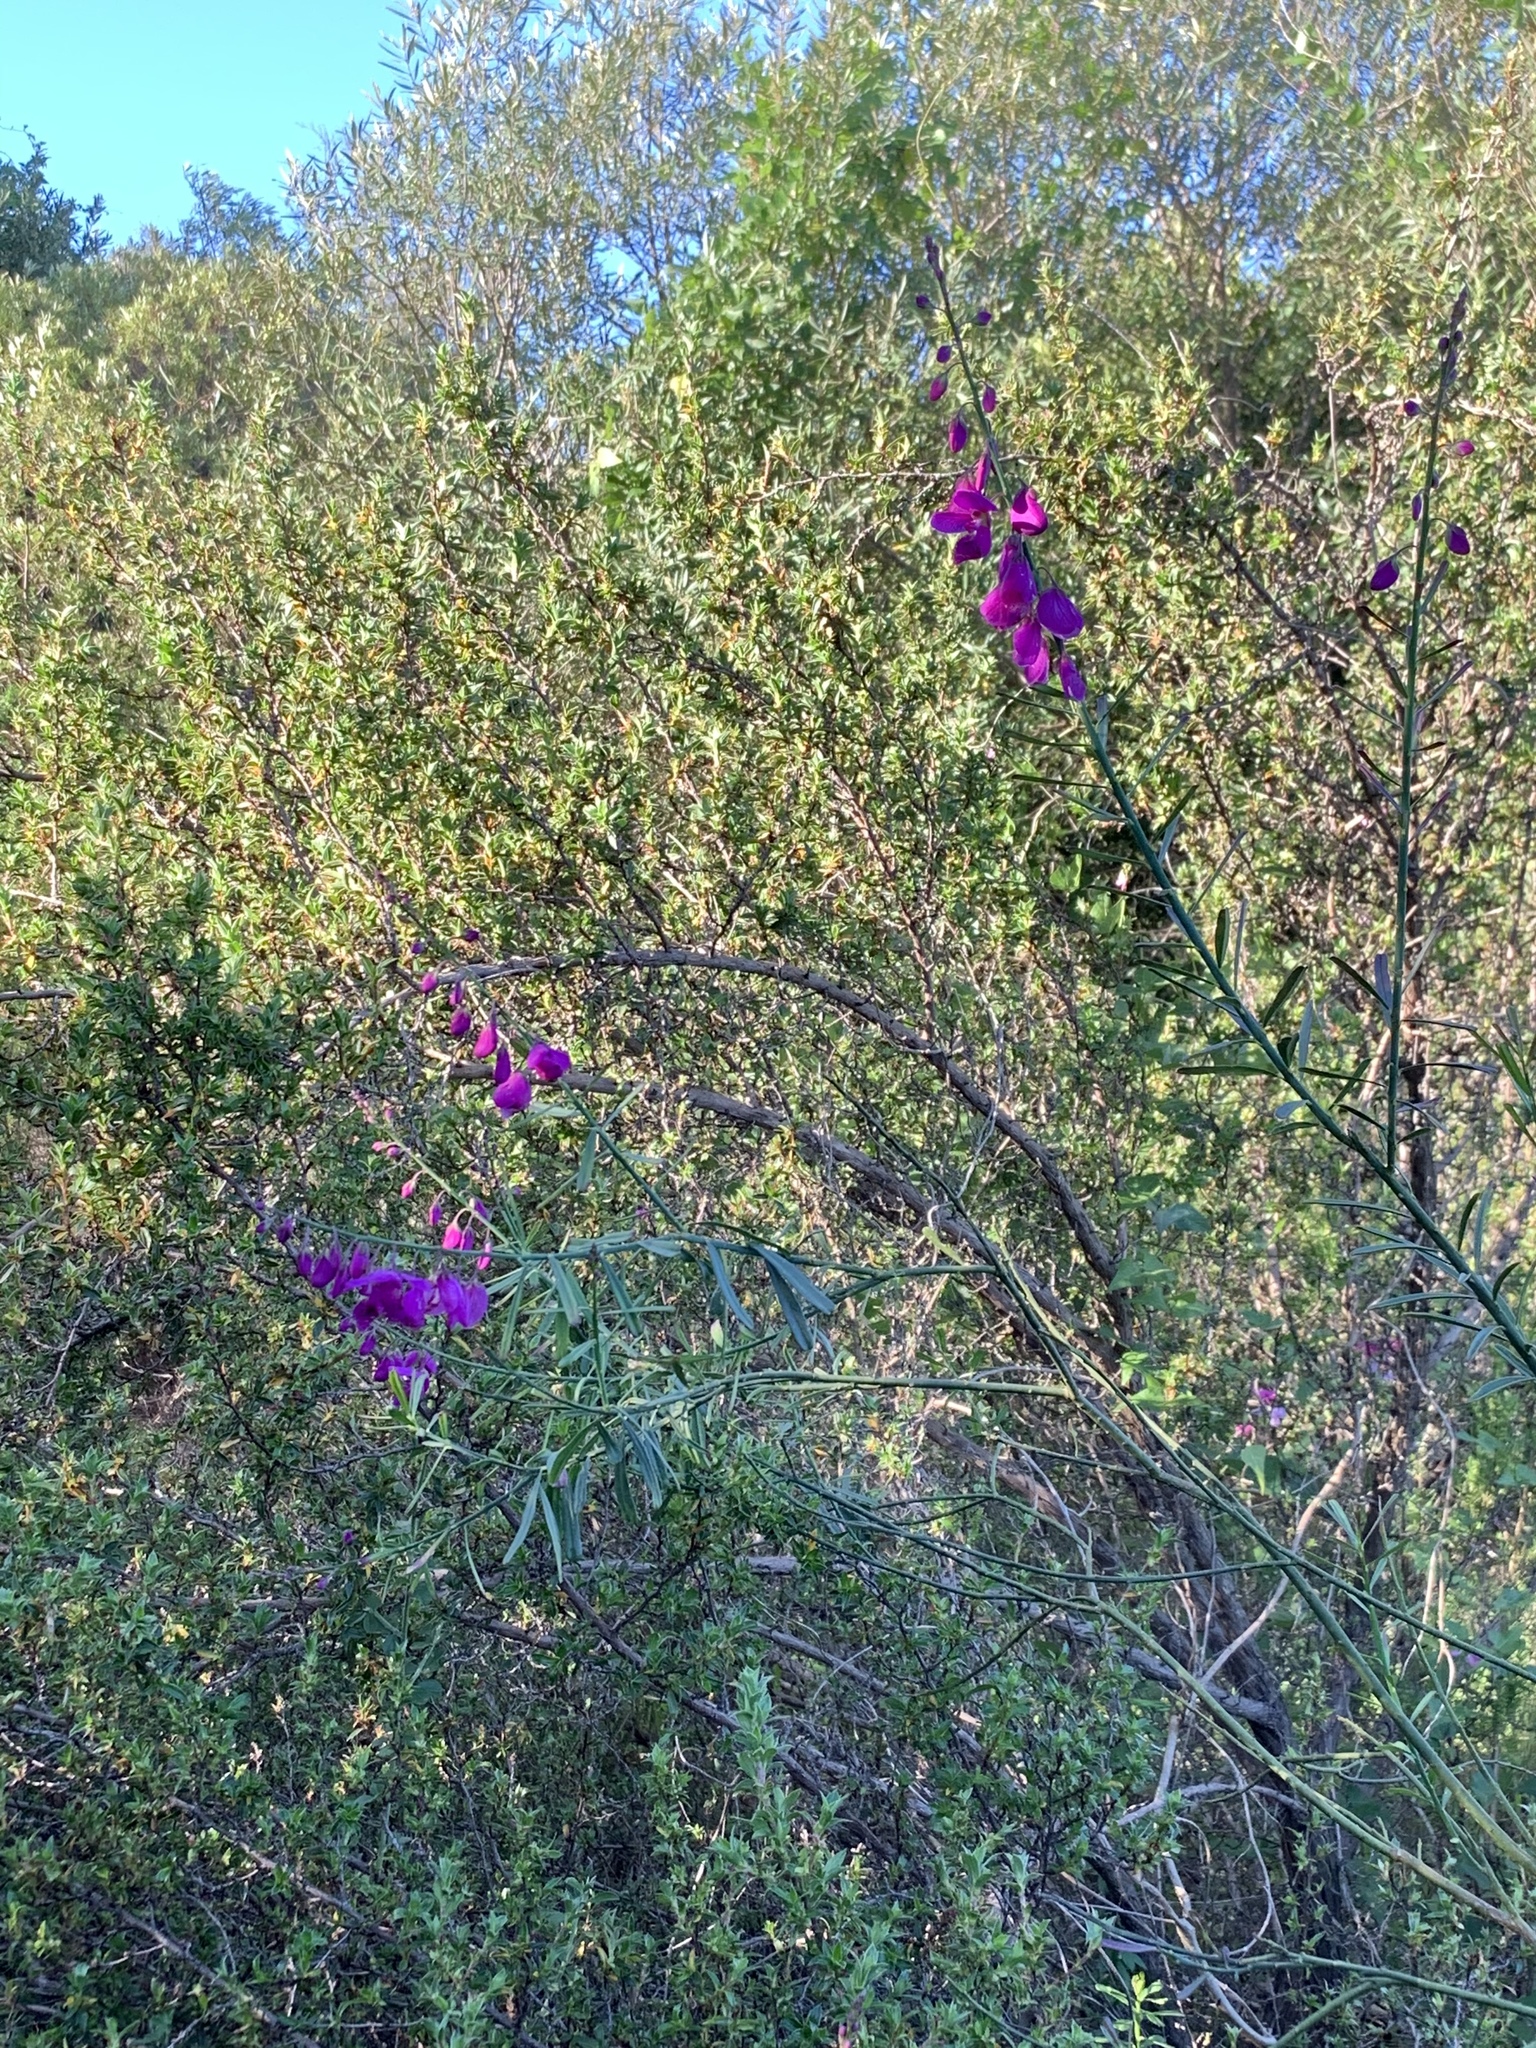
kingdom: Plantae
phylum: Tracheophyta
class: Magnoliopsida
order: Fabales
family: Polygalaceae
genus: Polygala
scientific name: Polygala virgata
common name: Milkwort
